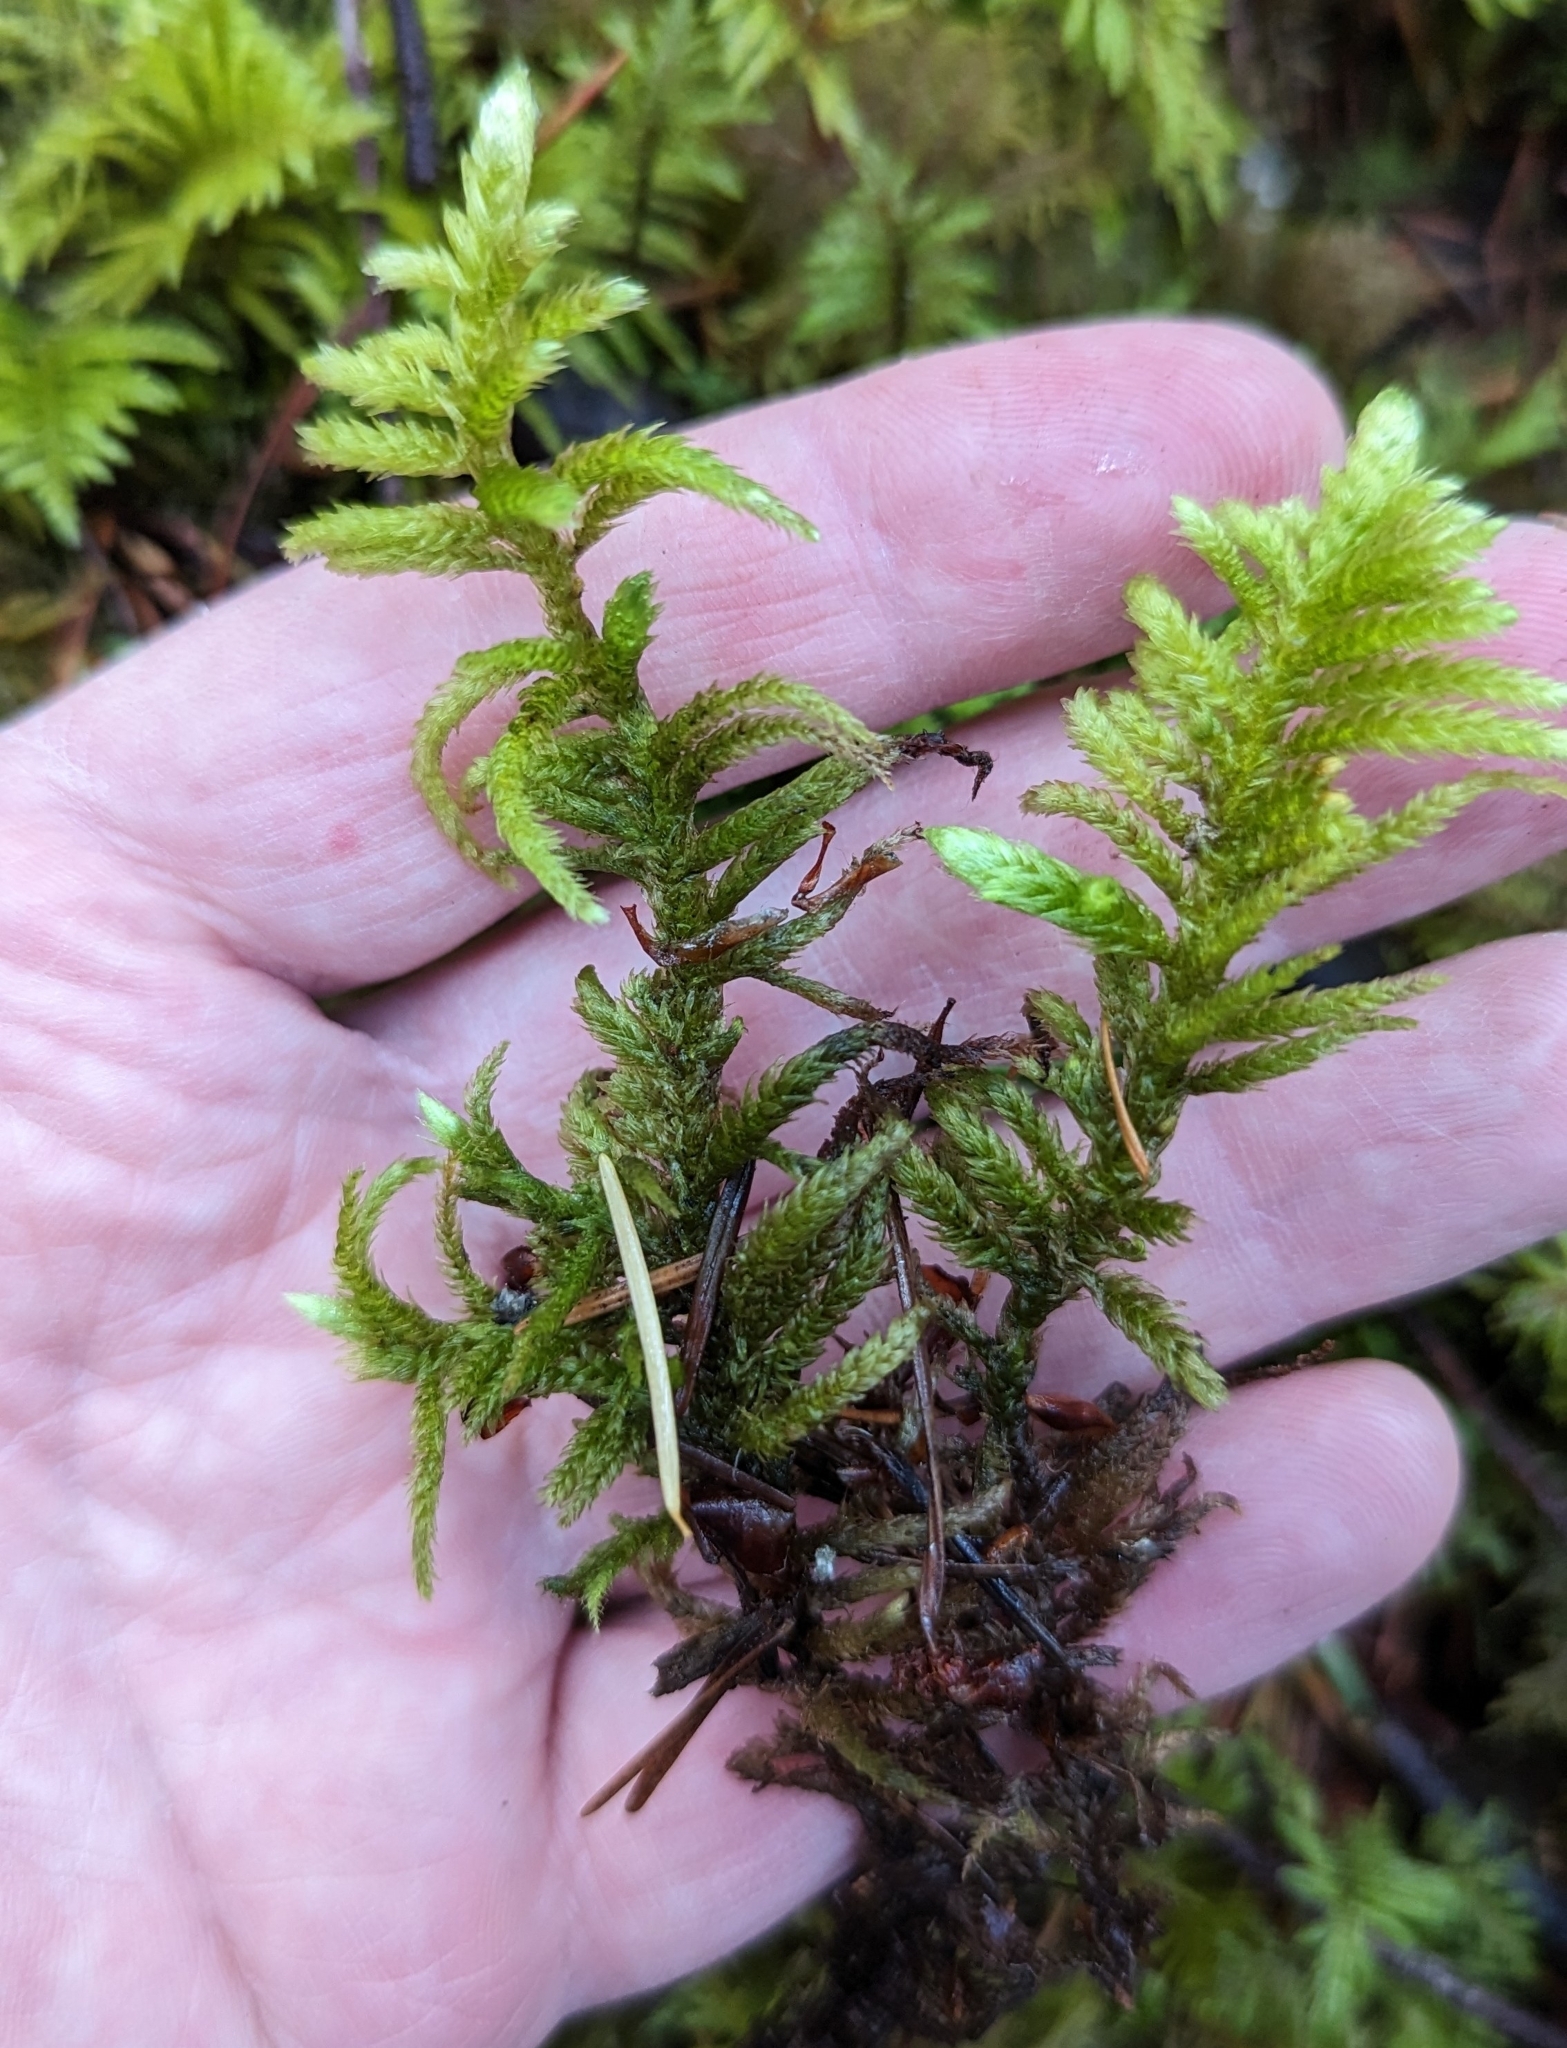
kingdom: Plantae
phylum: Bryophyta
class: Bryopsida
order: Hypnales
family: Brachytheciaceae
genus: Homalothecium
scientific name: Homalothecium megaptilum
